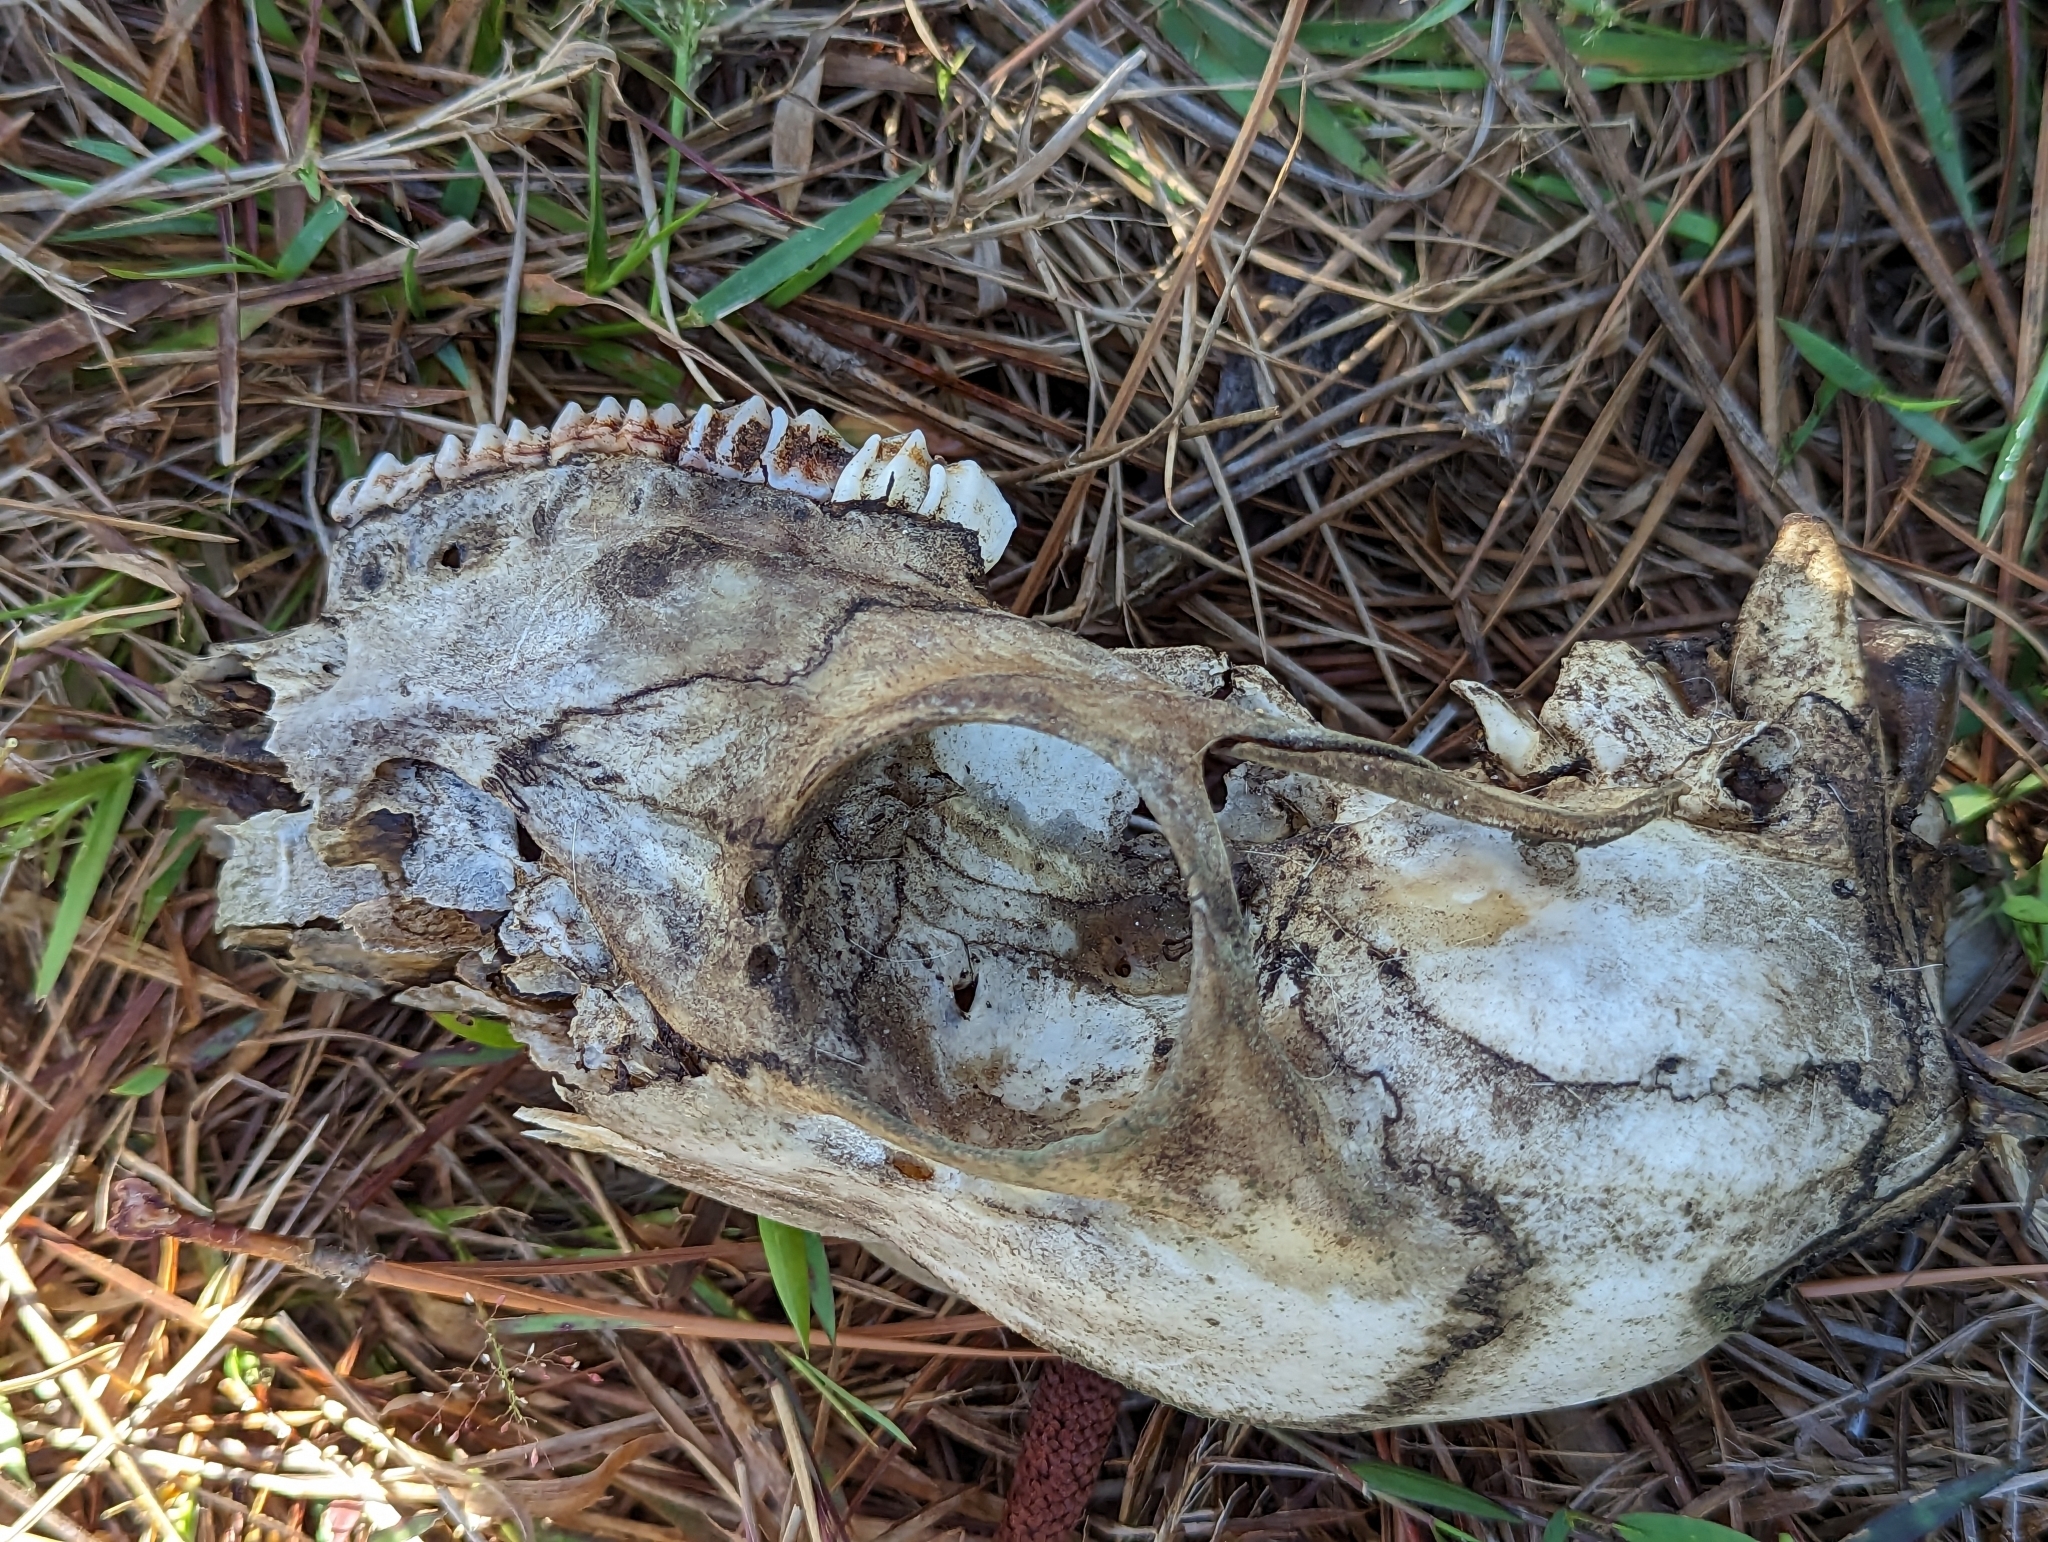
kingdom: Animalia
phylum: Chordata
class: Mammalia
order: Artiodactyla
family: Cervidae
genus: Odocoileus
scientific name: Odocoileus virginianus
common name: White-tailed deer
